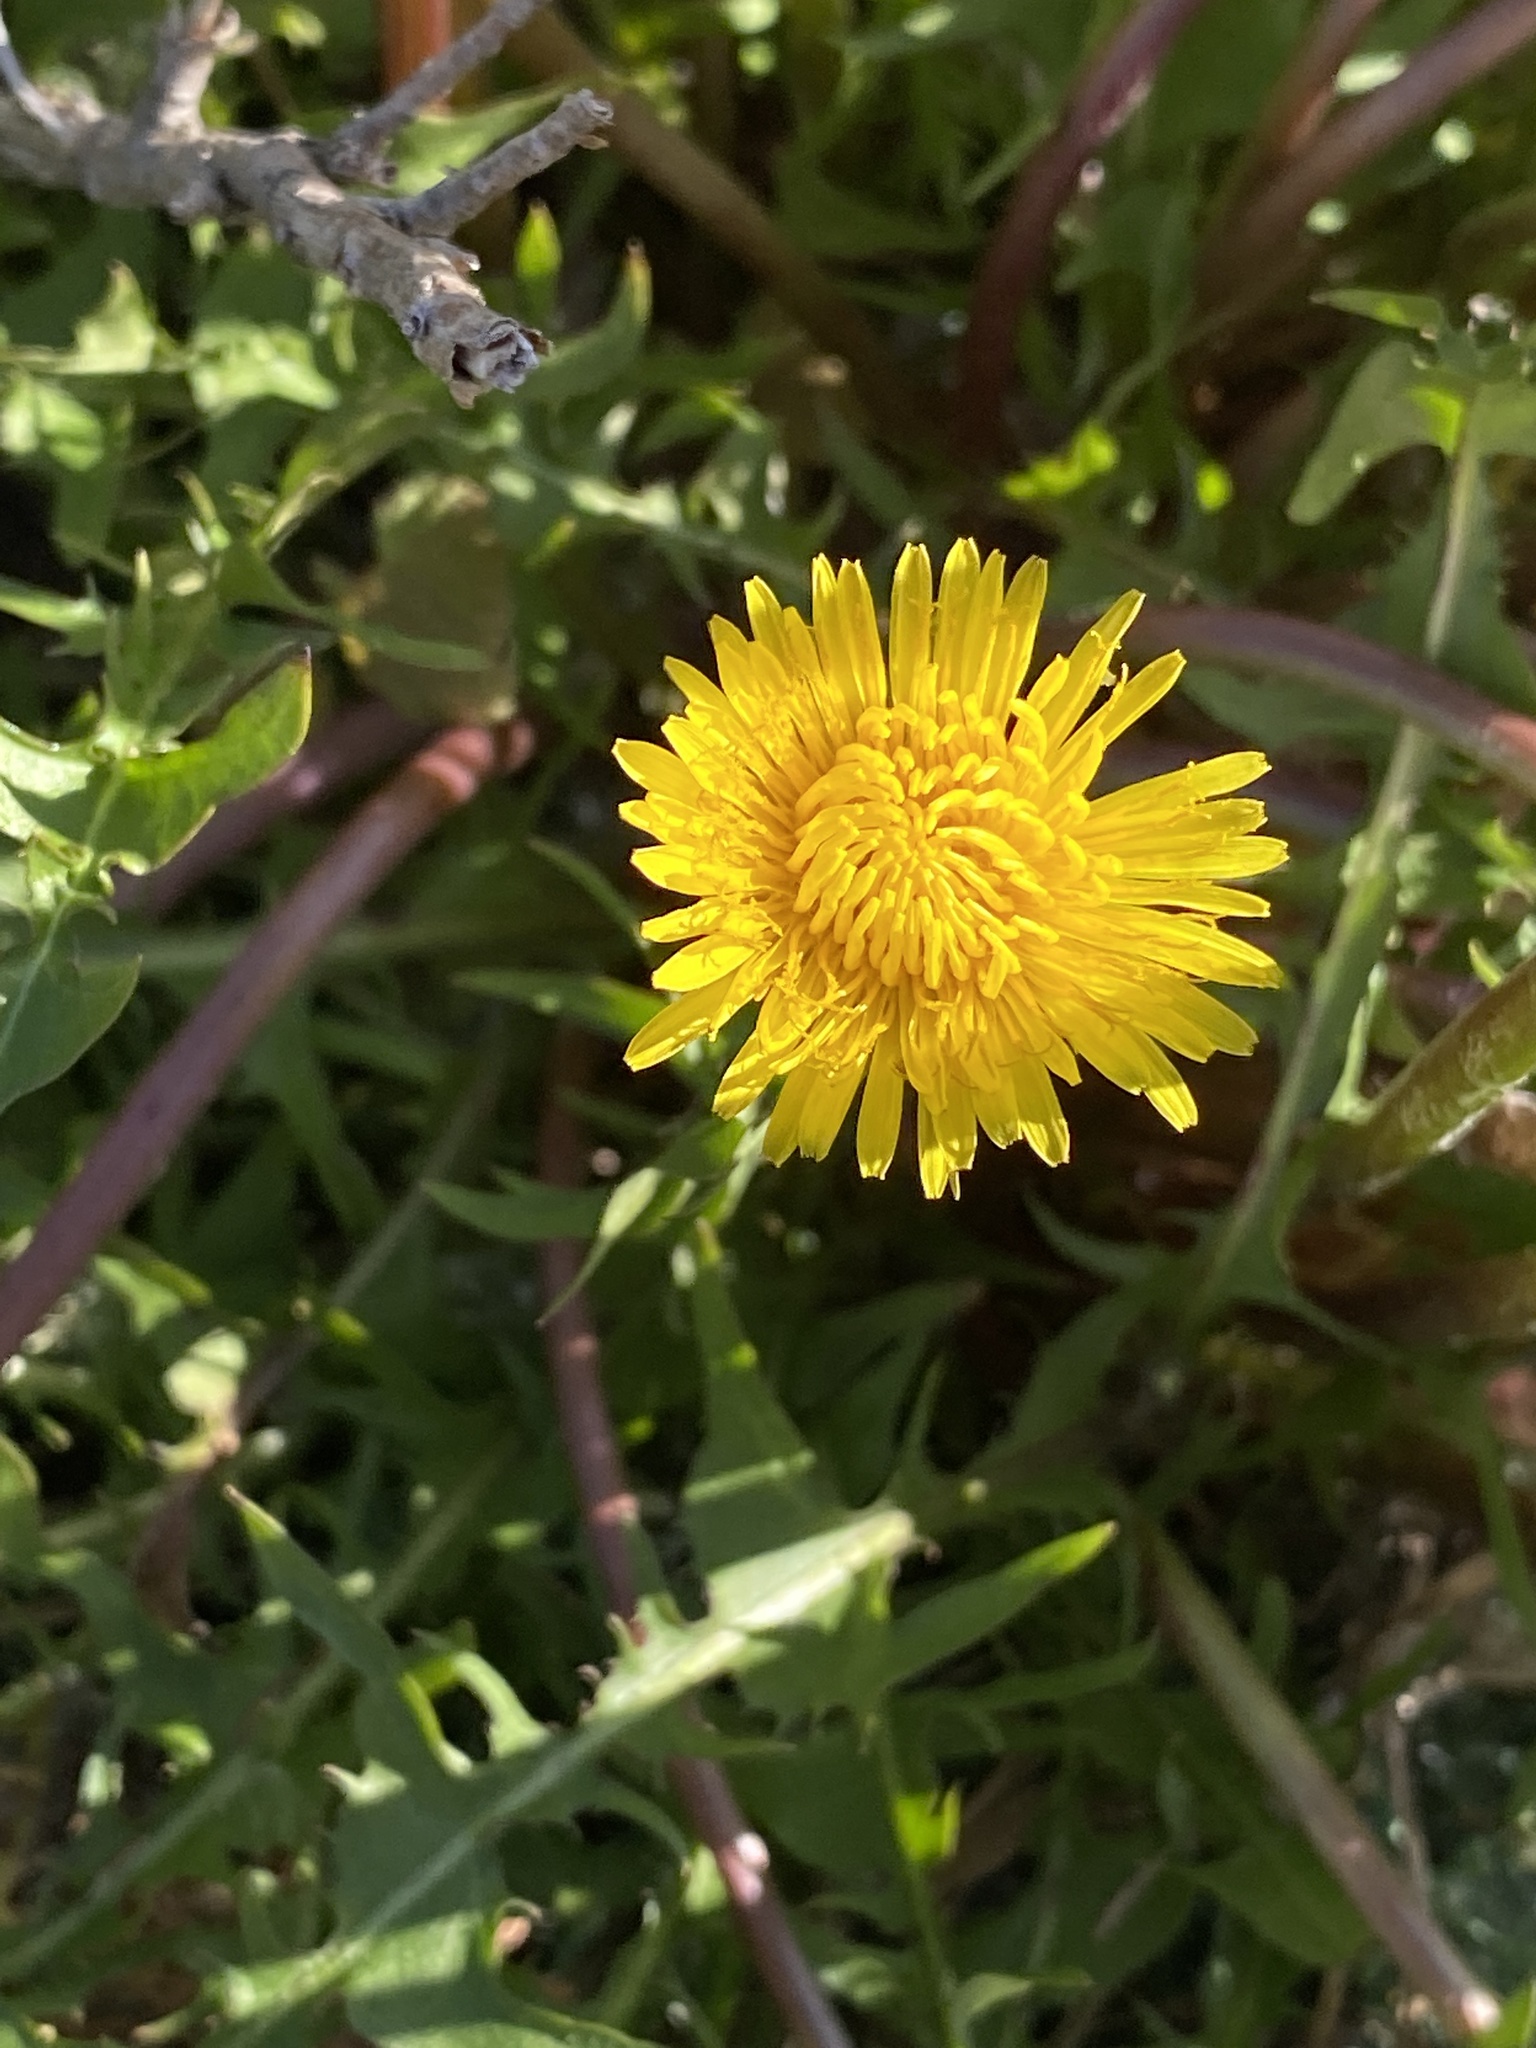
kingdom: Plantae
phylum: Tracheophyta
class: Magnoliopsida
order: Asterales
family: Asteraceae
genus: Taraxacum
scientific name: Taraxacum officinale
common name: Common dandelion
